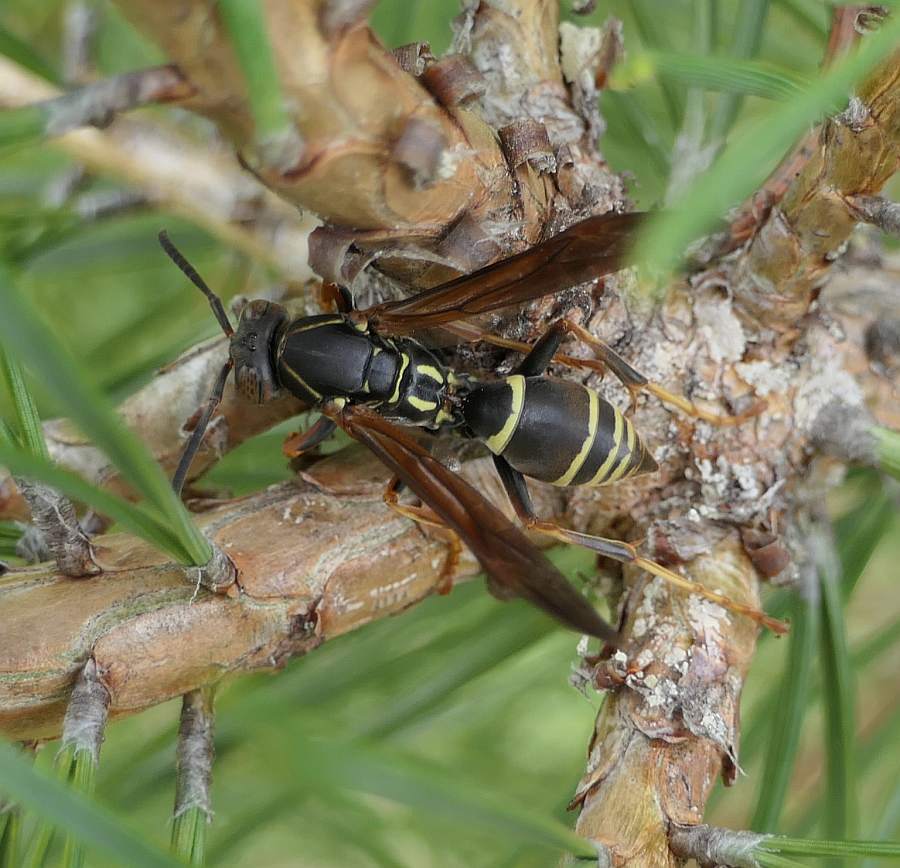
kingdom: Animalia
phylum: Arthropoda
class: Insecta
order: Hymenoptera
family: Eumenidae
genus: Polistes
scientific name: Polistes fuscatus
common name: Dark paper wasp
